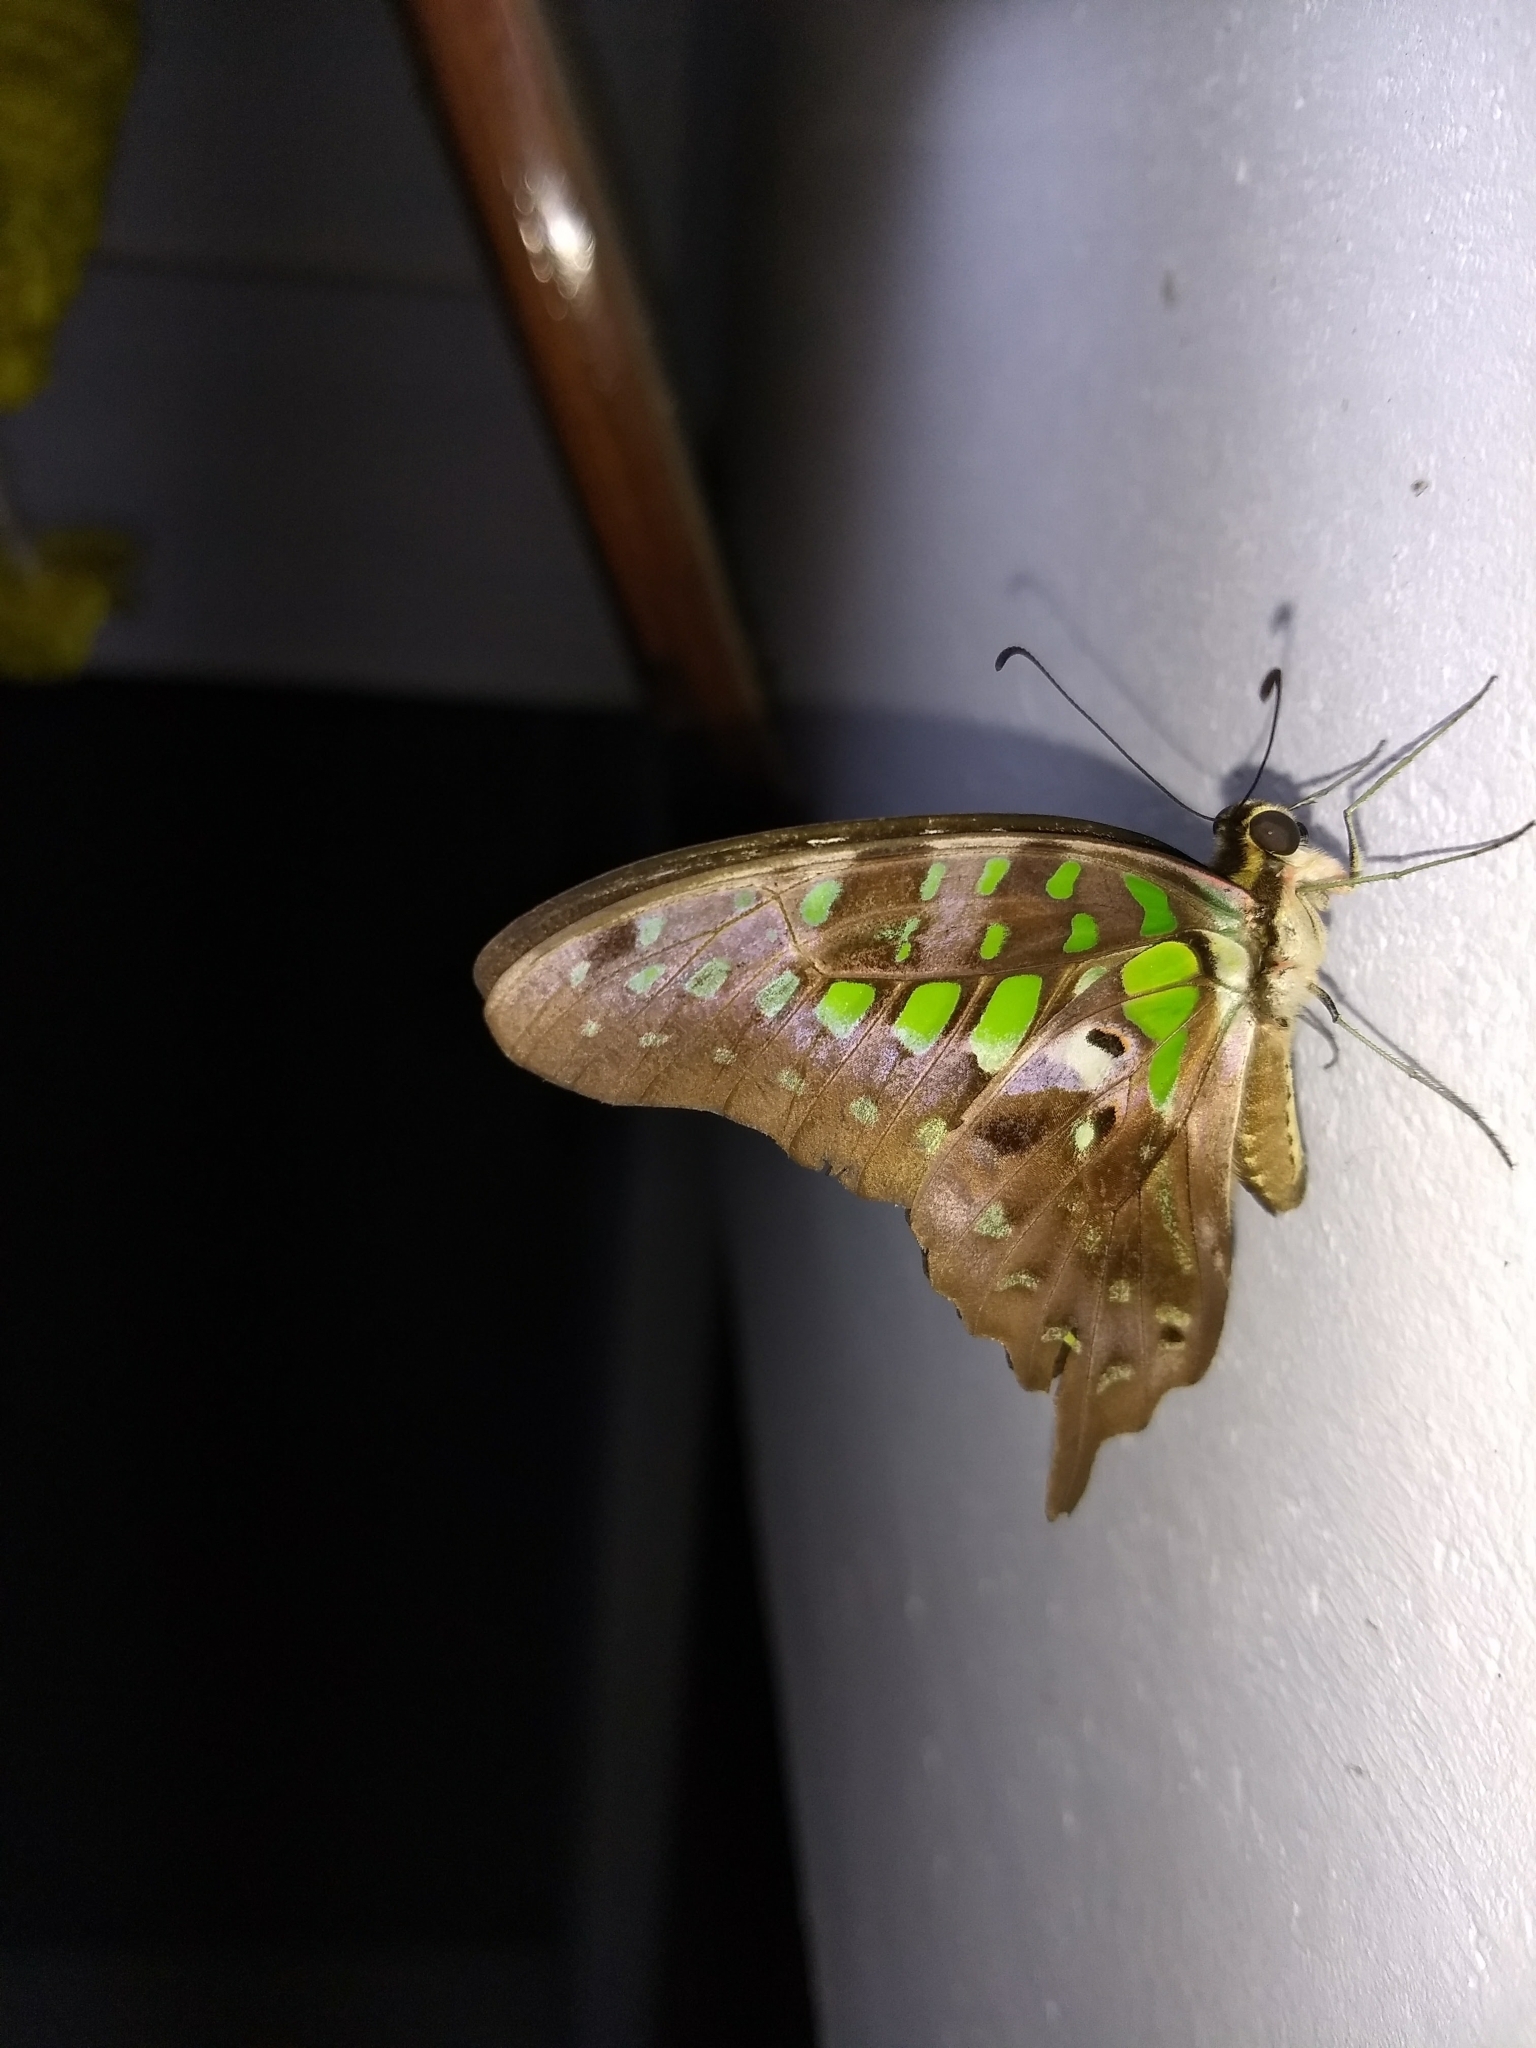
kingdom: Animalia
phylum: Arthropoda
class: Insecta
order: Lepidoptera
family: Papilionidae
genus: Graphium
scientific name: Graphium agamemnon
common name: Tailed jay
